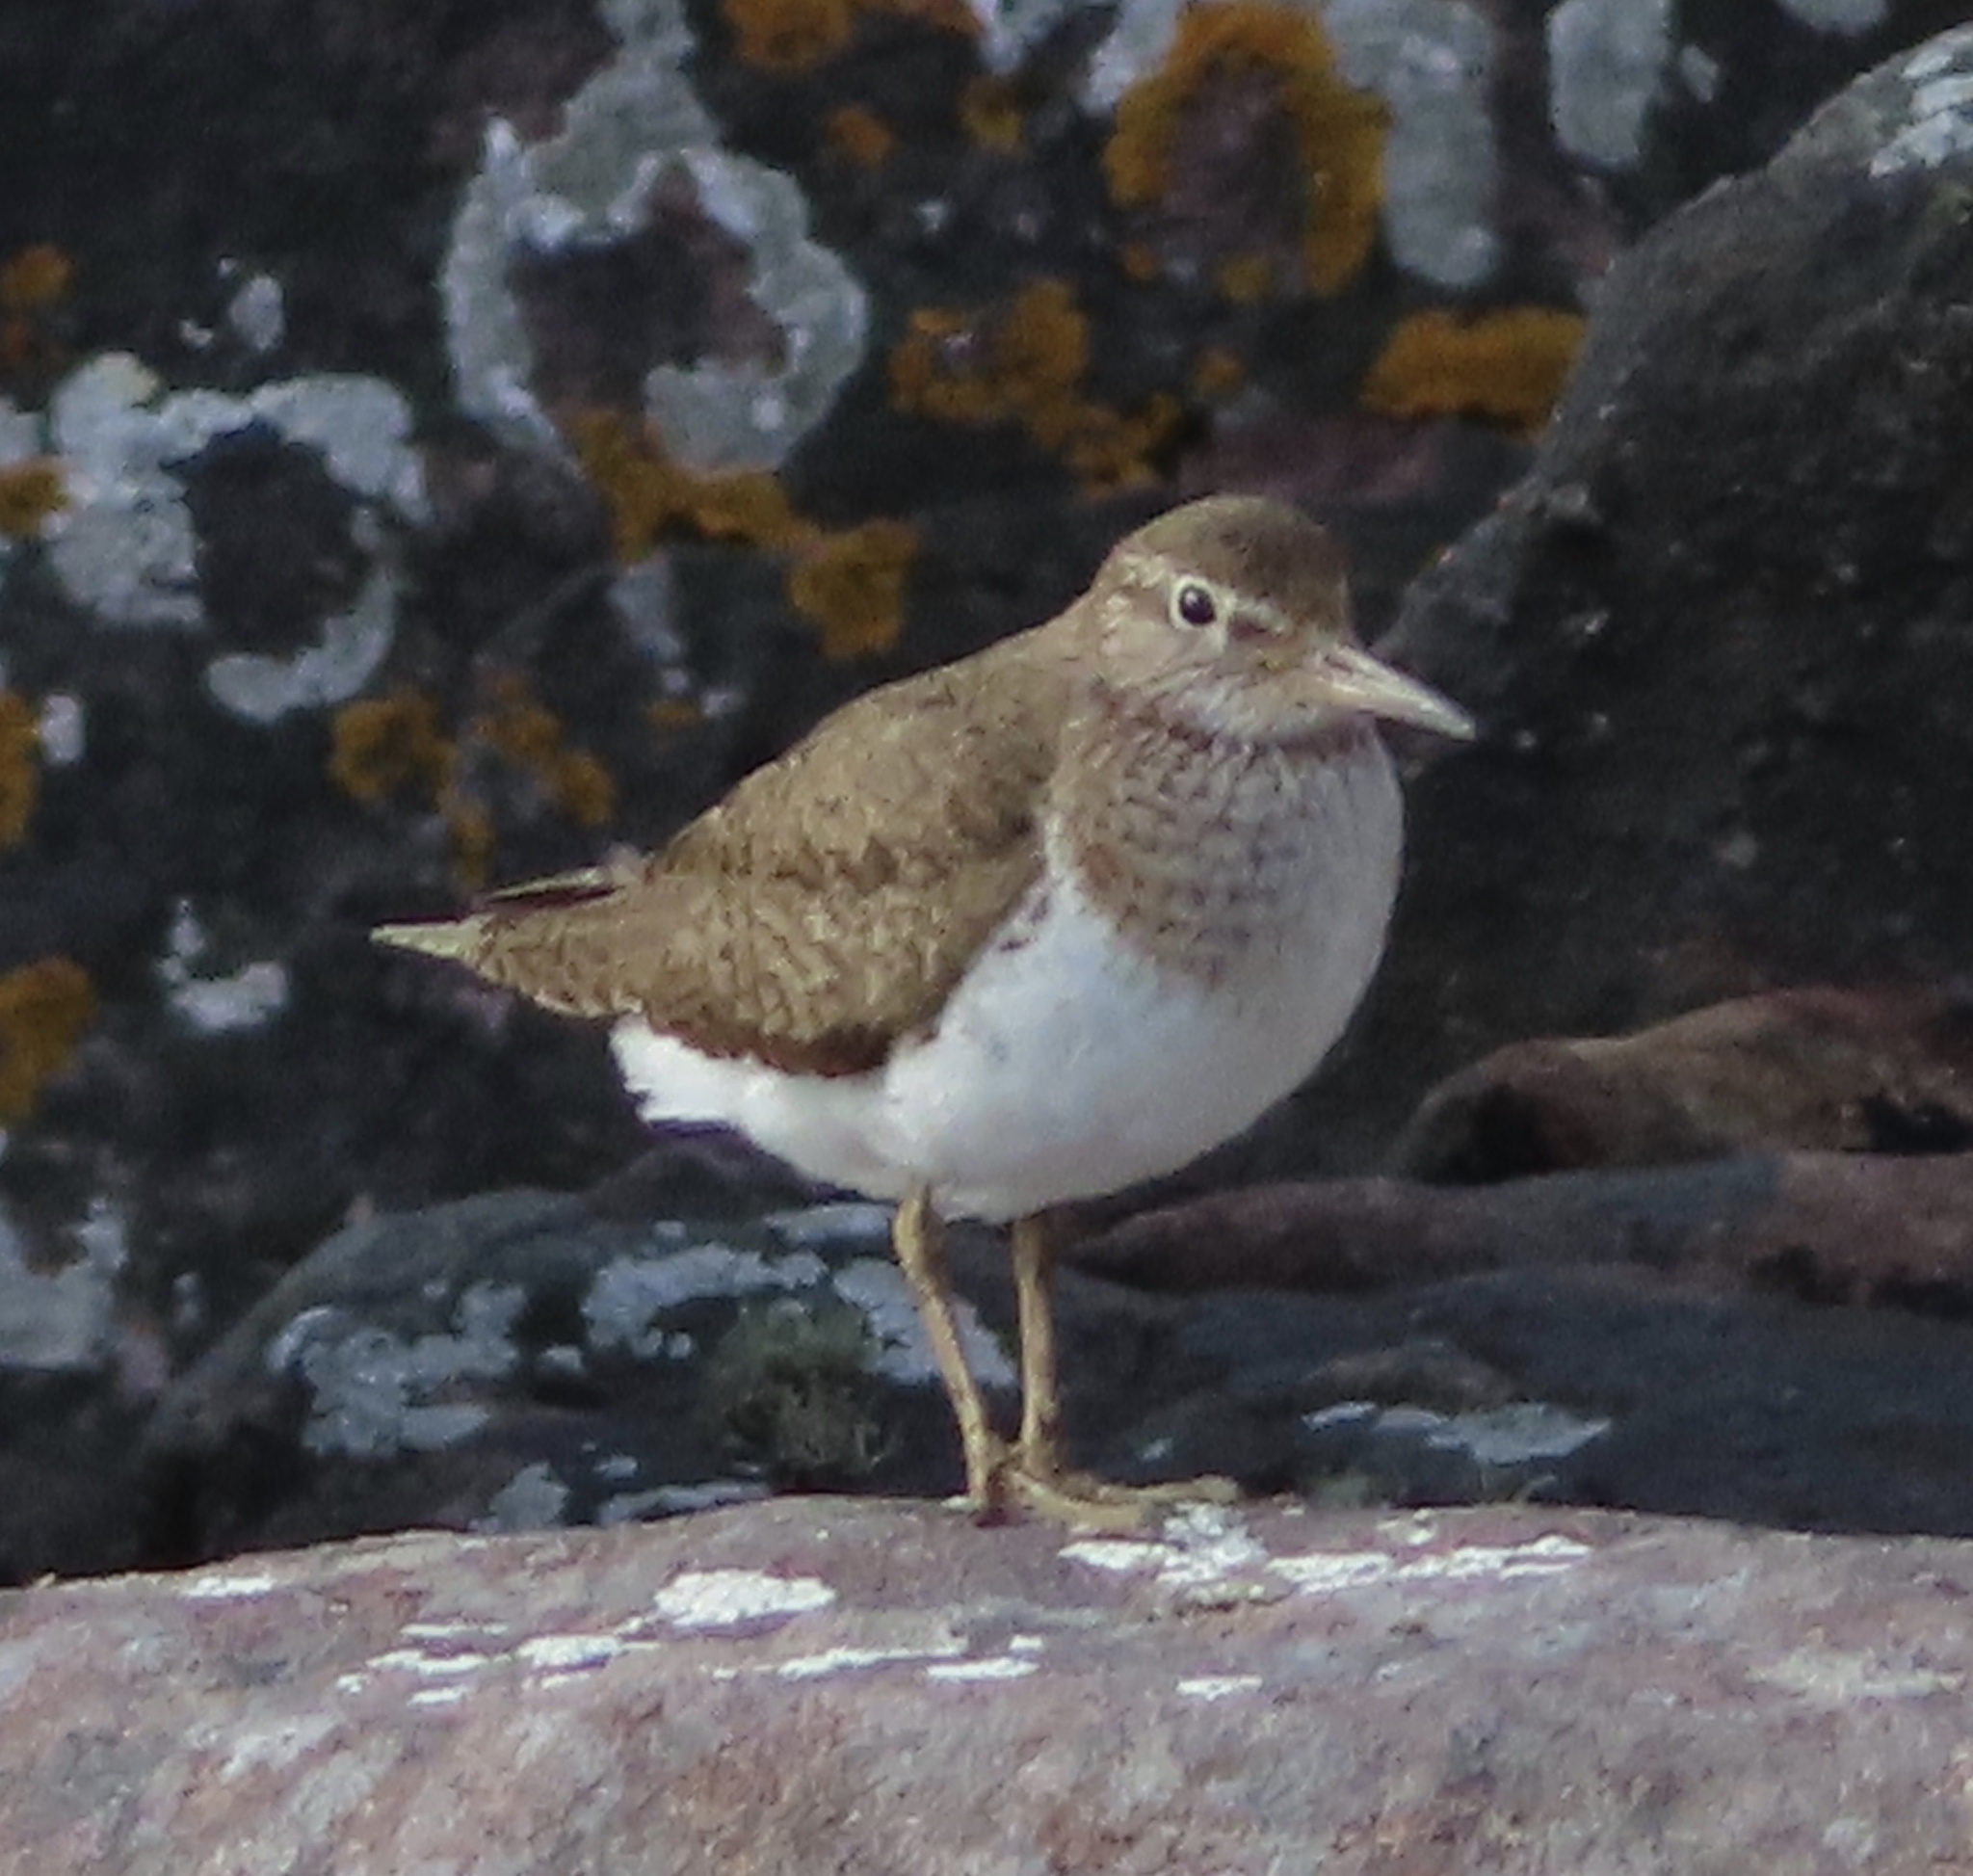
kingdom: Animalia
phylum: Chordata
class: Aves
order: Charadriiformes
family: Scolopacidae
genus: Actitis
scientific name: Actitis hypoleucos
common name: Common sandpiper
